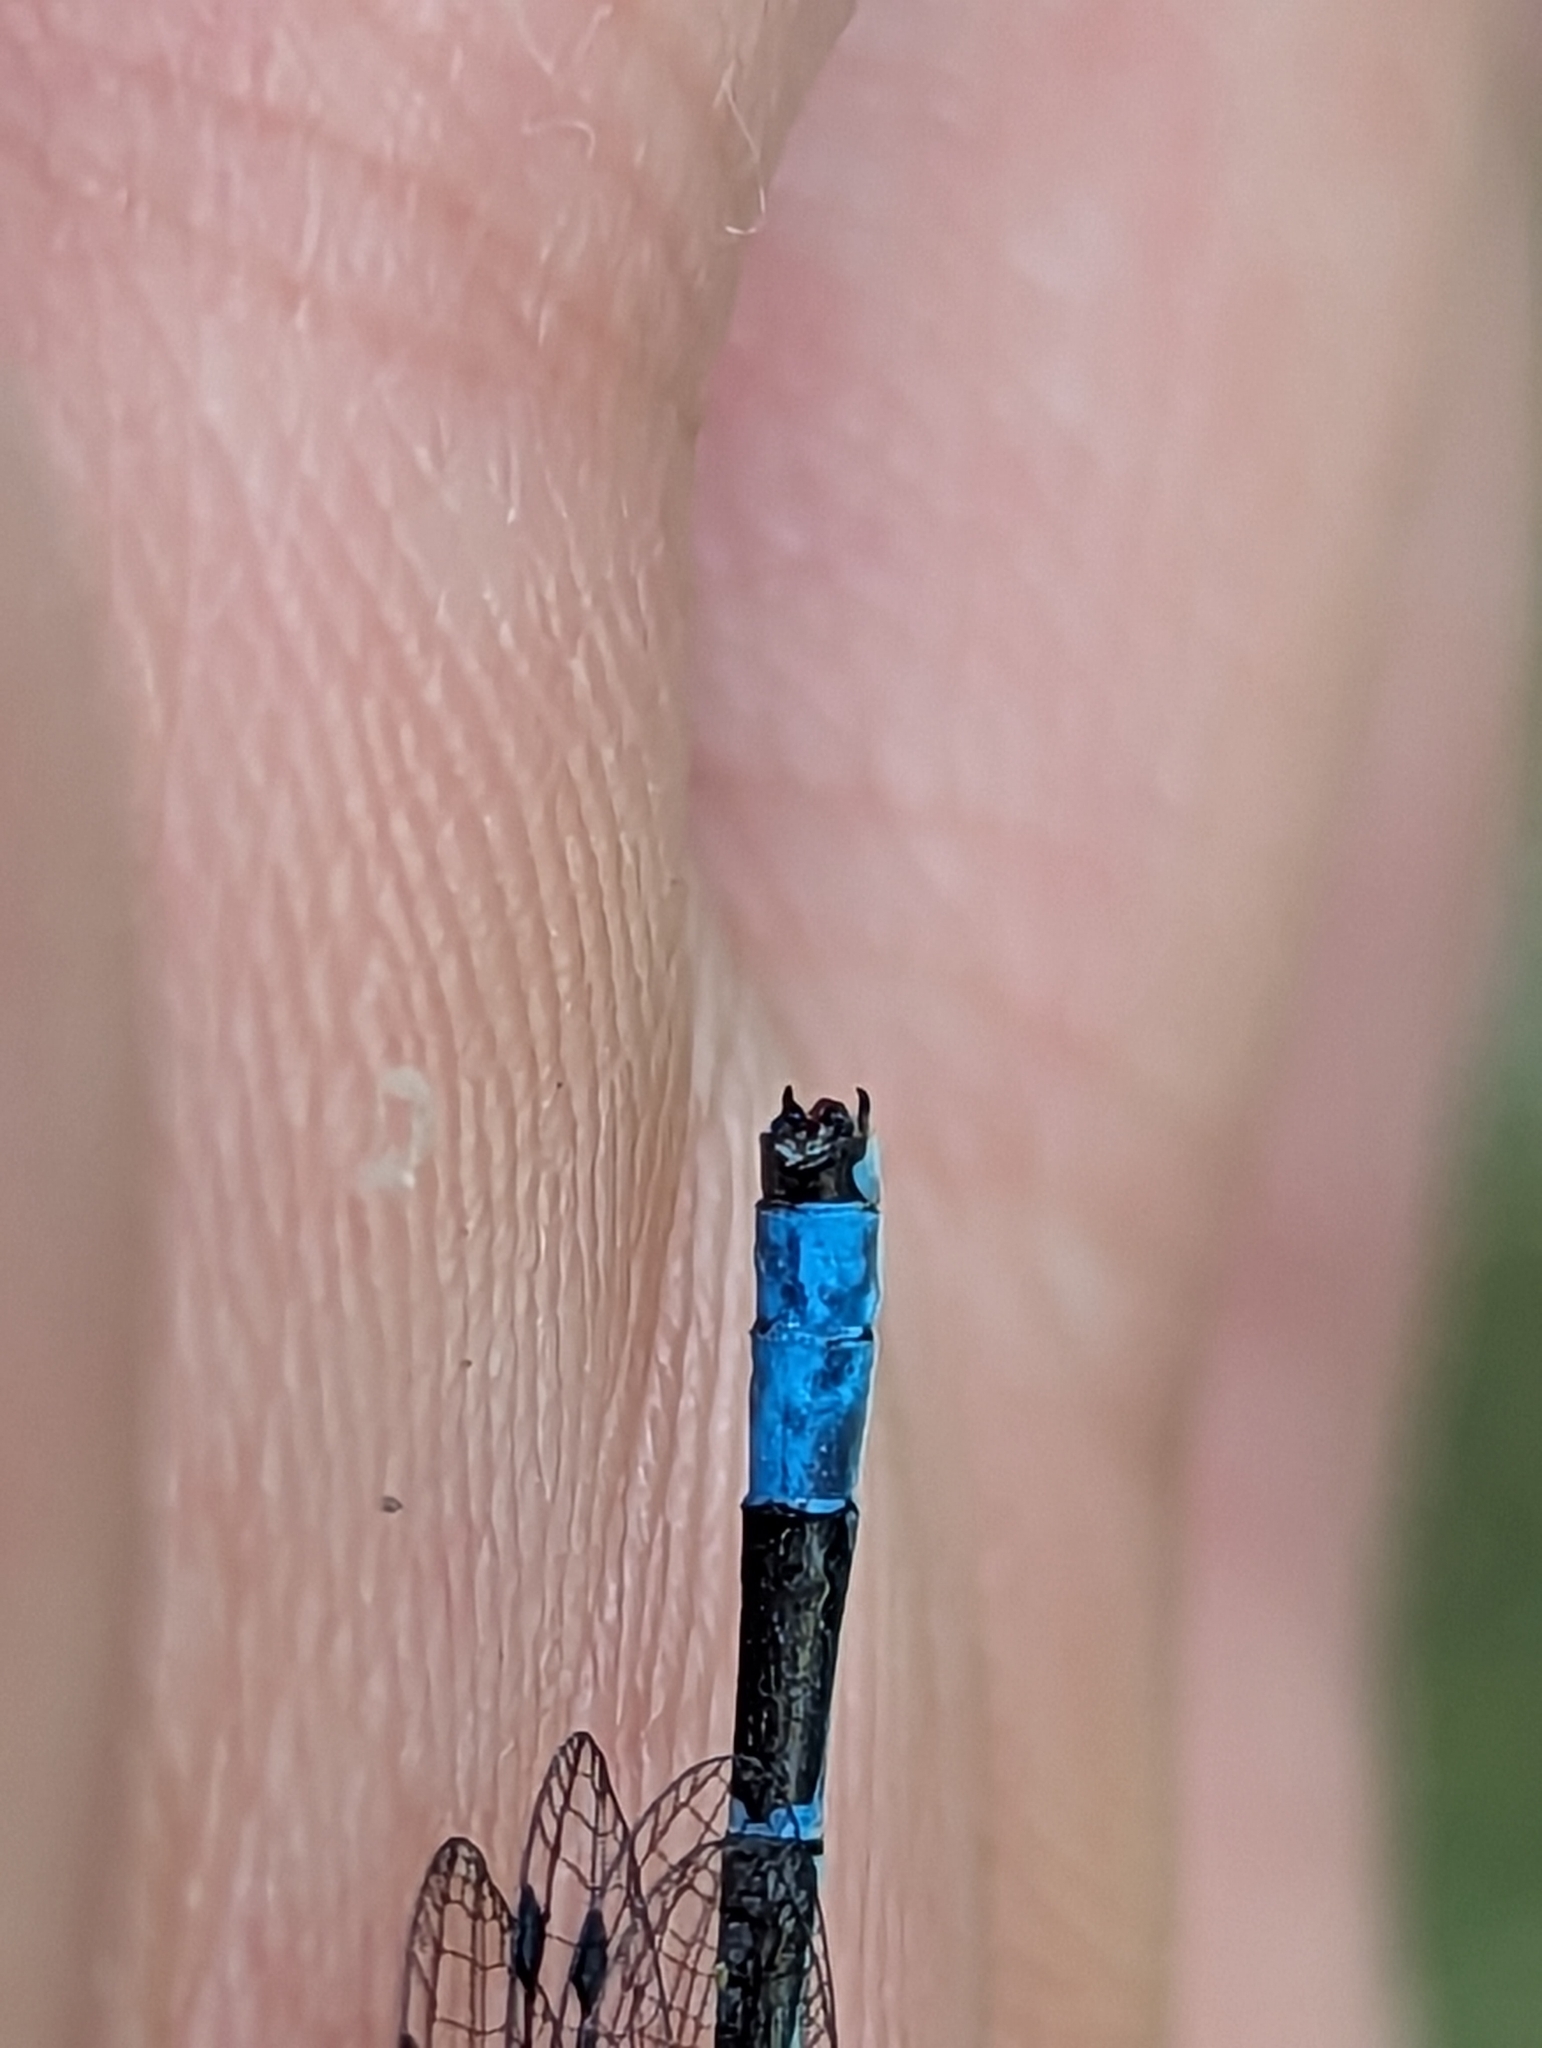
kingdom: Animalia
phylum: Arthropoda
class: Insecta
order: Odonata
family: Coenagrionidae
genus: Enallagma
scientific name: Enallagma hageni
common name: Hagen's bluet
